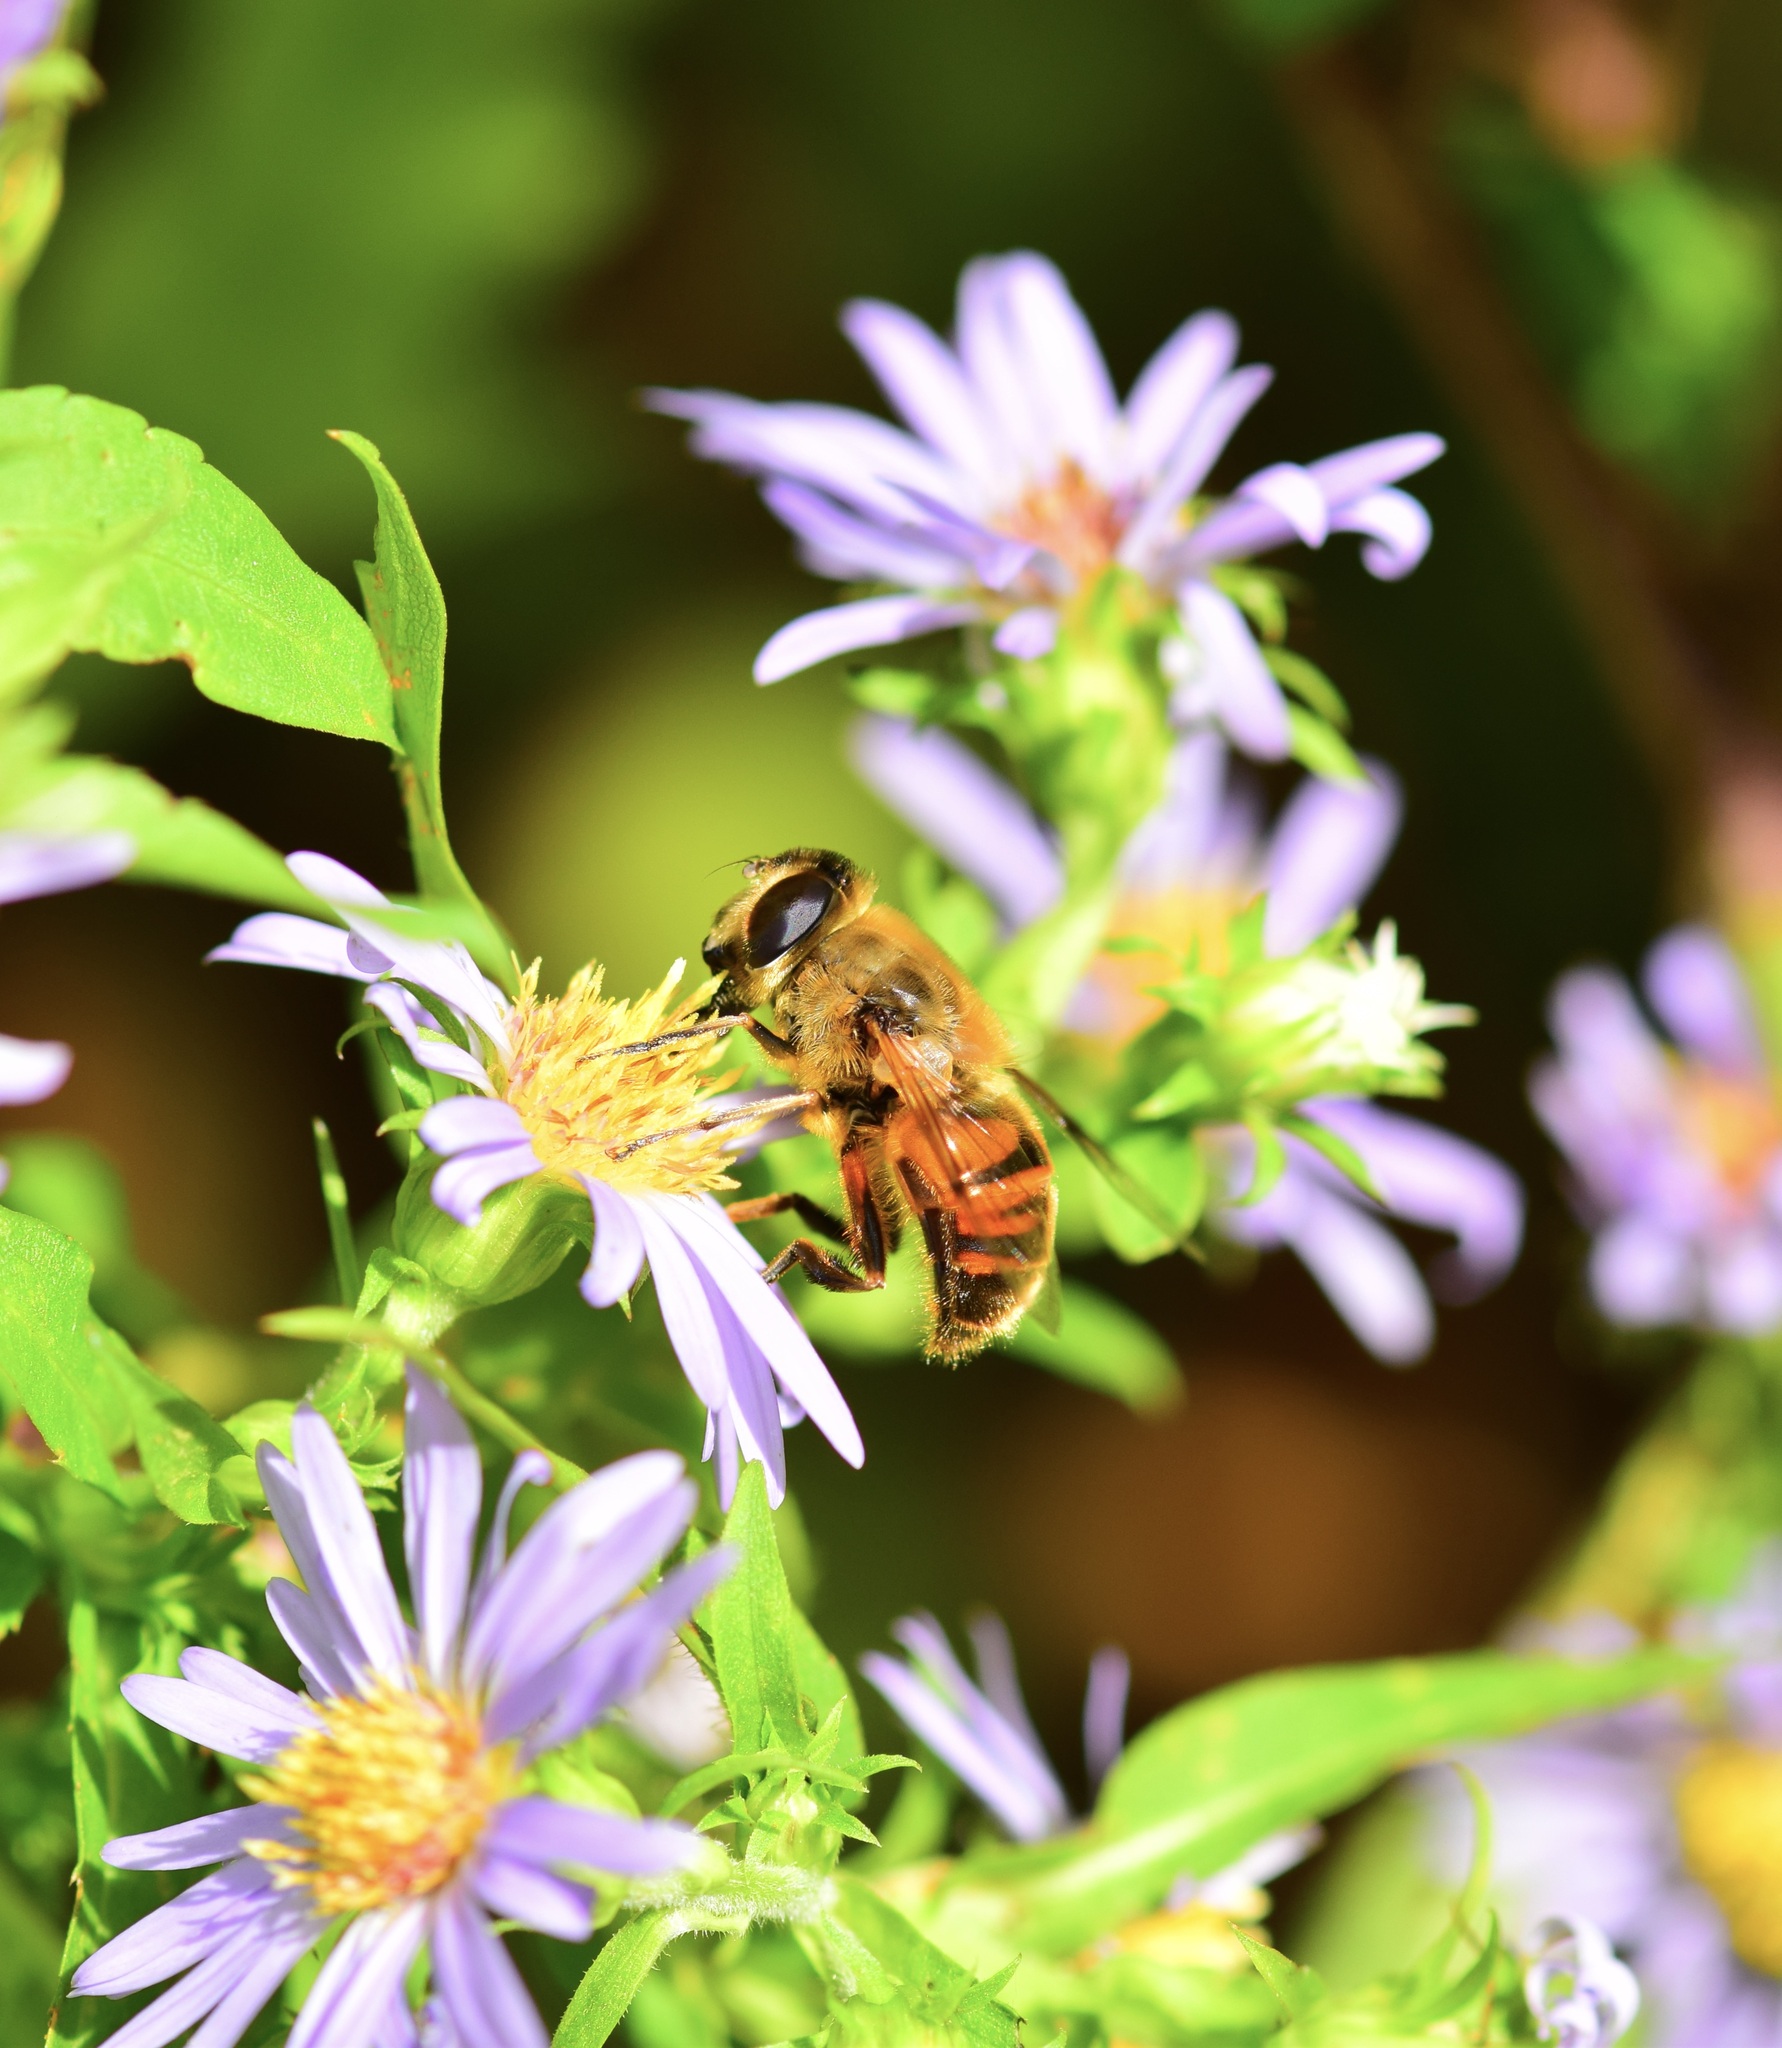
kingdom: Animalia
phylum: Arthropoda
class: Insecta
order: Diptera
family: Syrphidae
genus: Eristalis
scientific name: Eristalis tenax
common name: Drone fly
